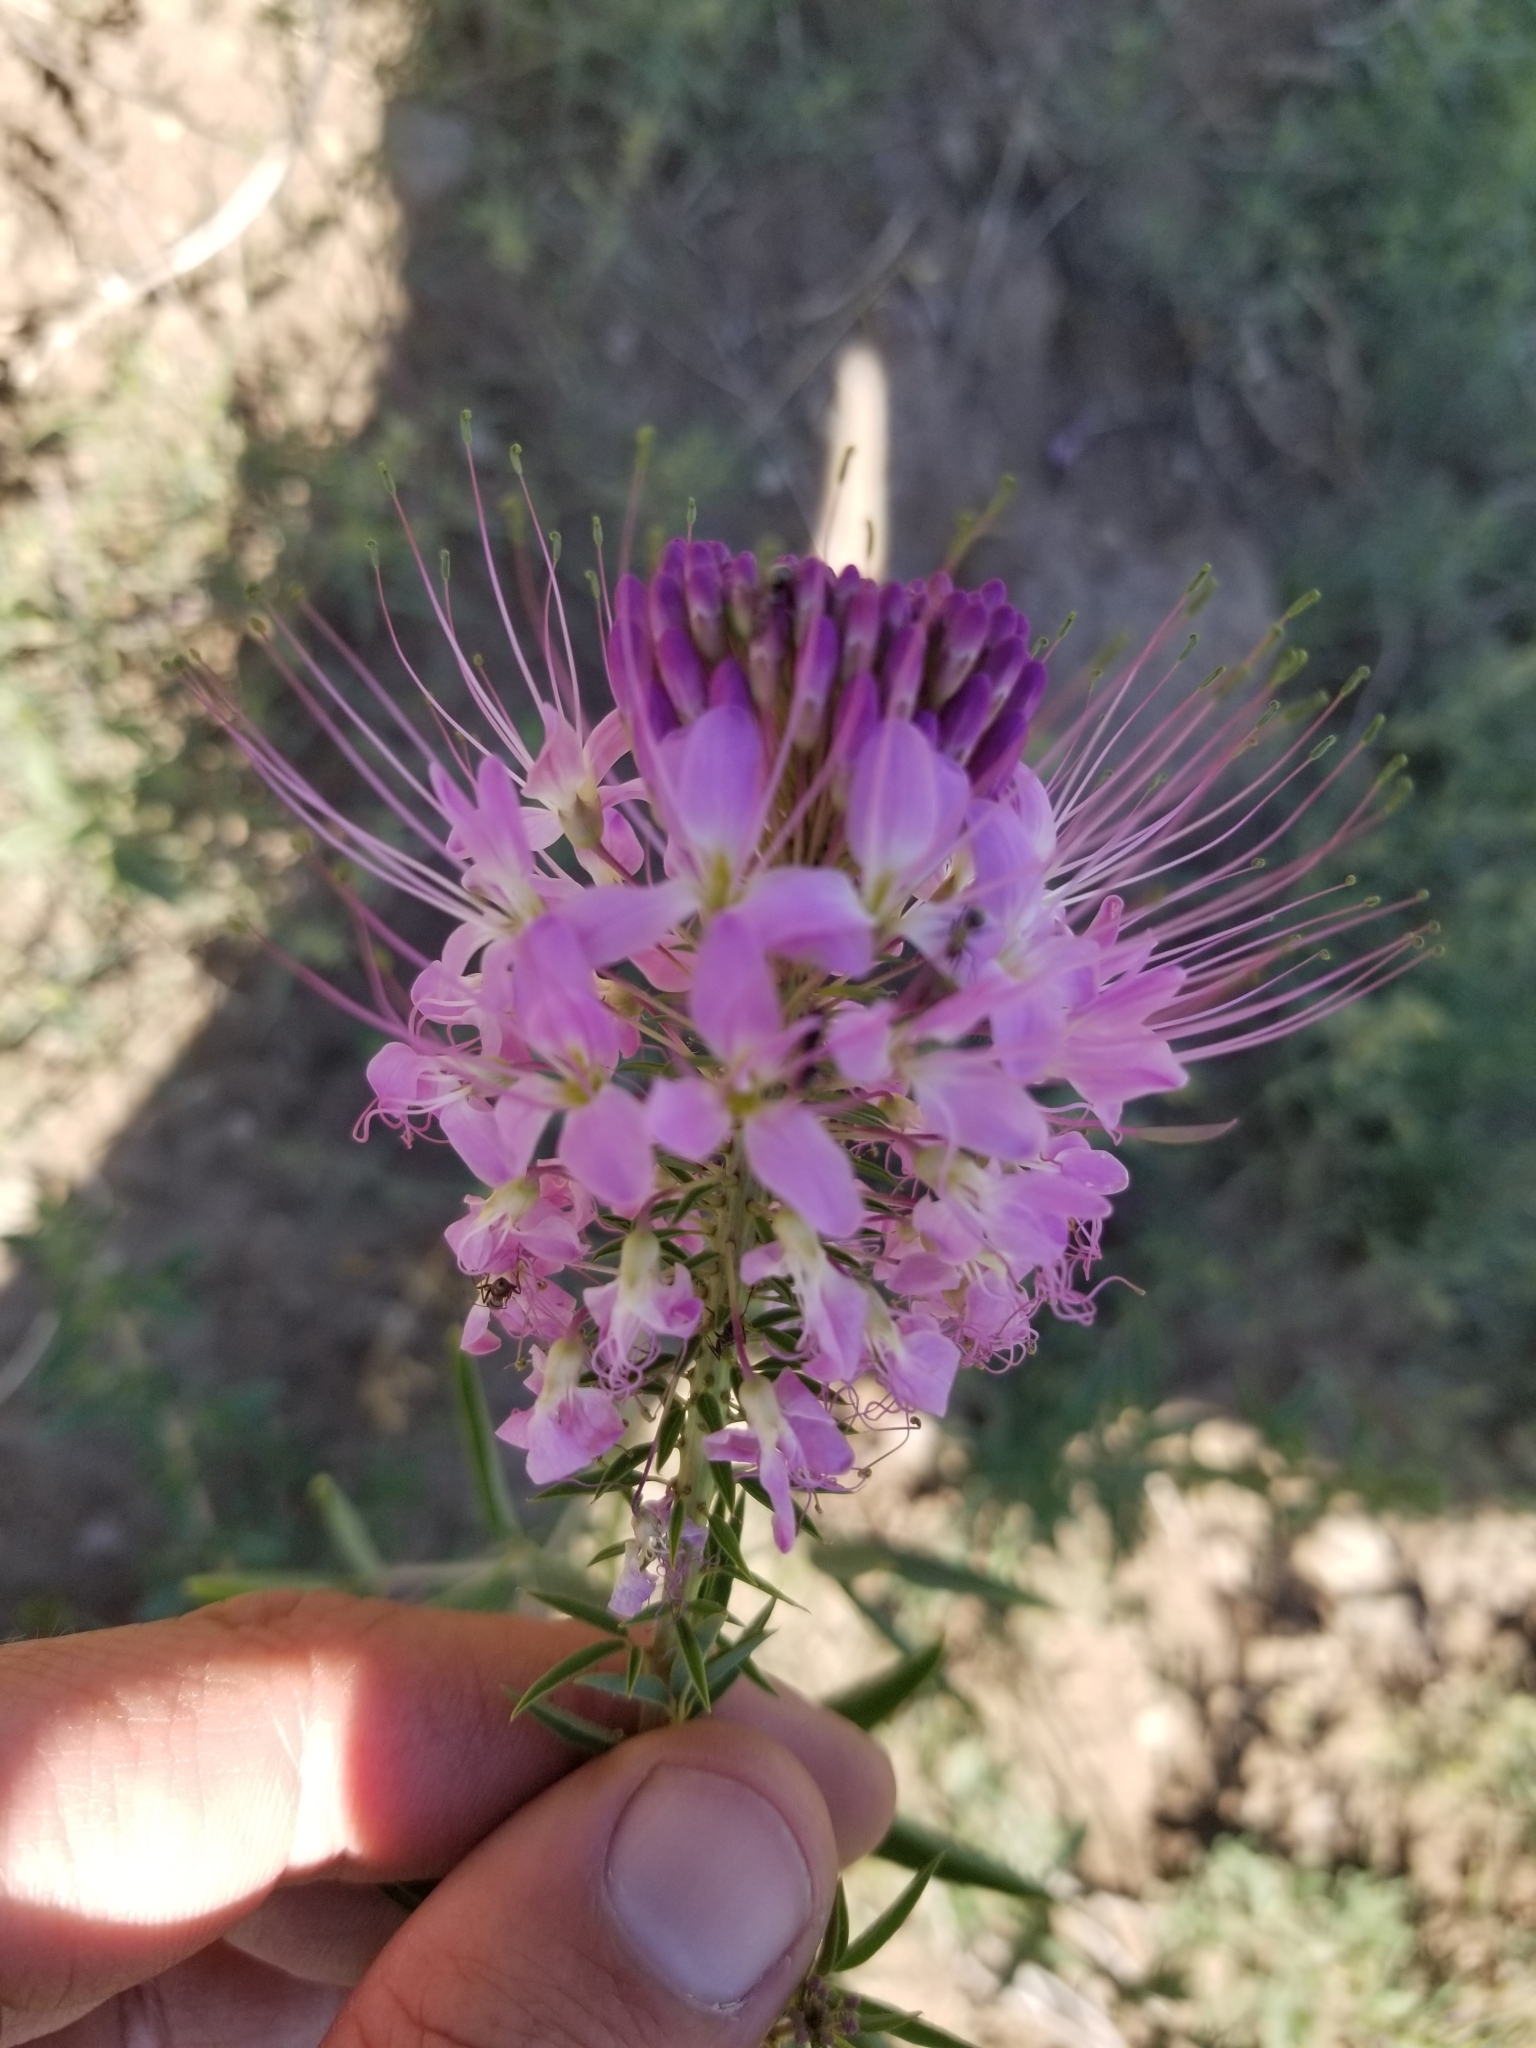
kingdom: Plantae
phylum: Tracheophyta
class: Magnoliopsida
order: Brassicales
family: Cleomaceae
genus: Cleomella
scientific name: Cleomella serrulata
